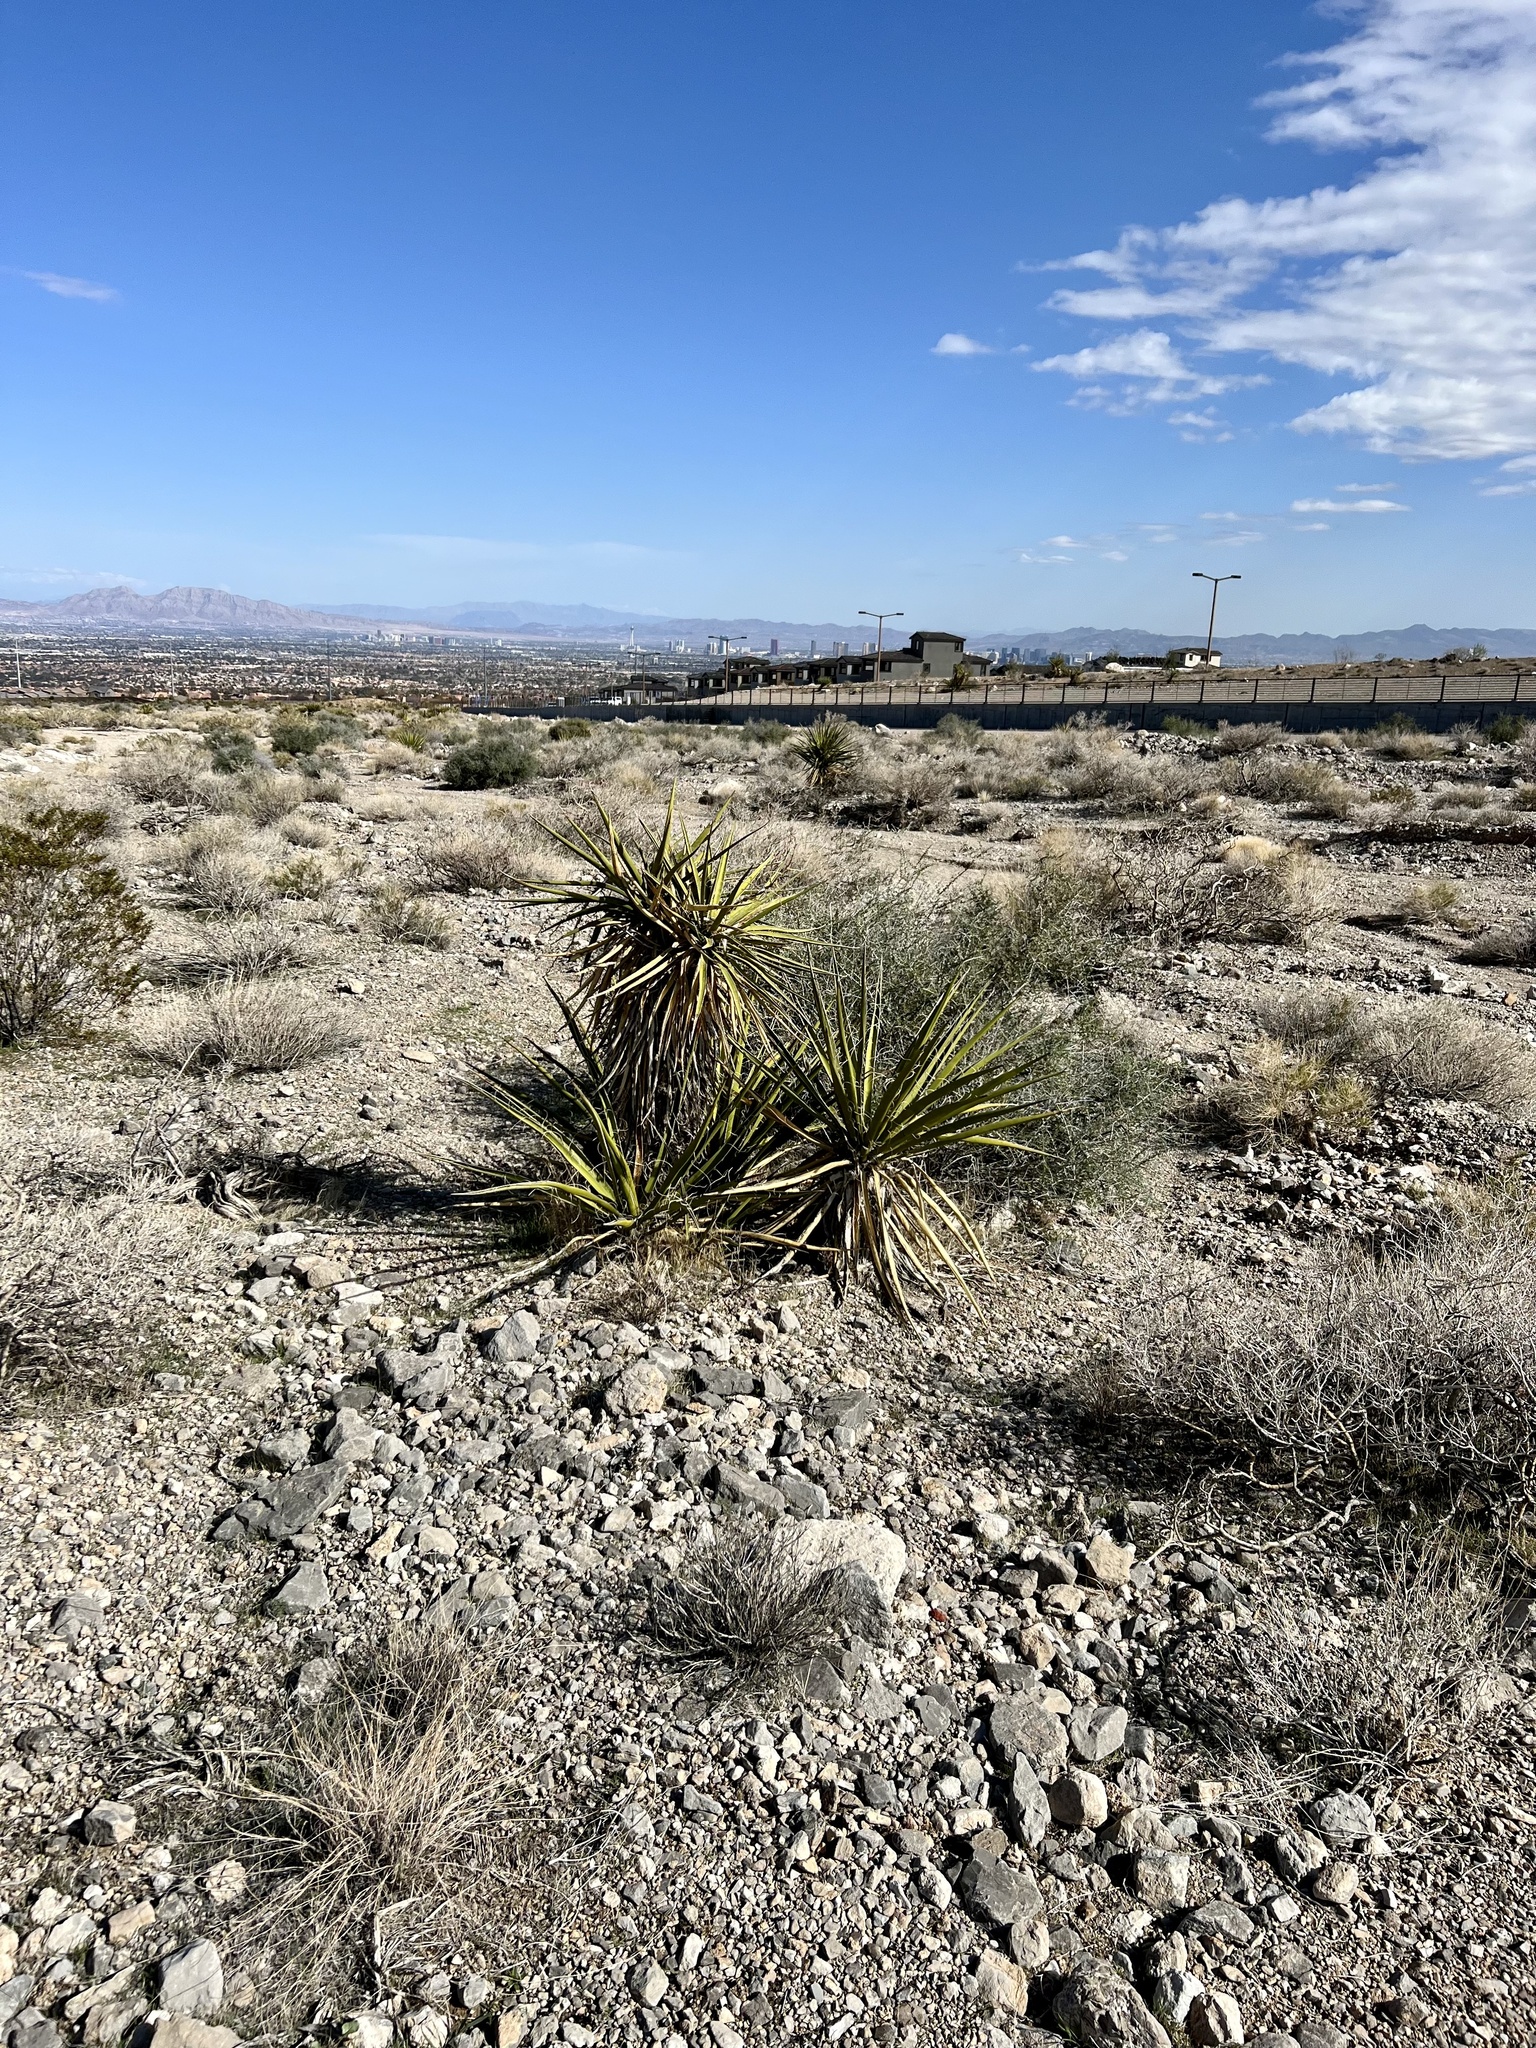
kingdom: Plantae
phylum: Tracheophyta
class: Liliopsida
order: Asparagales
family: Asparagaceae
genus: Yucca
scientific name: Yucca schidigera
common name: Mojave yucca
